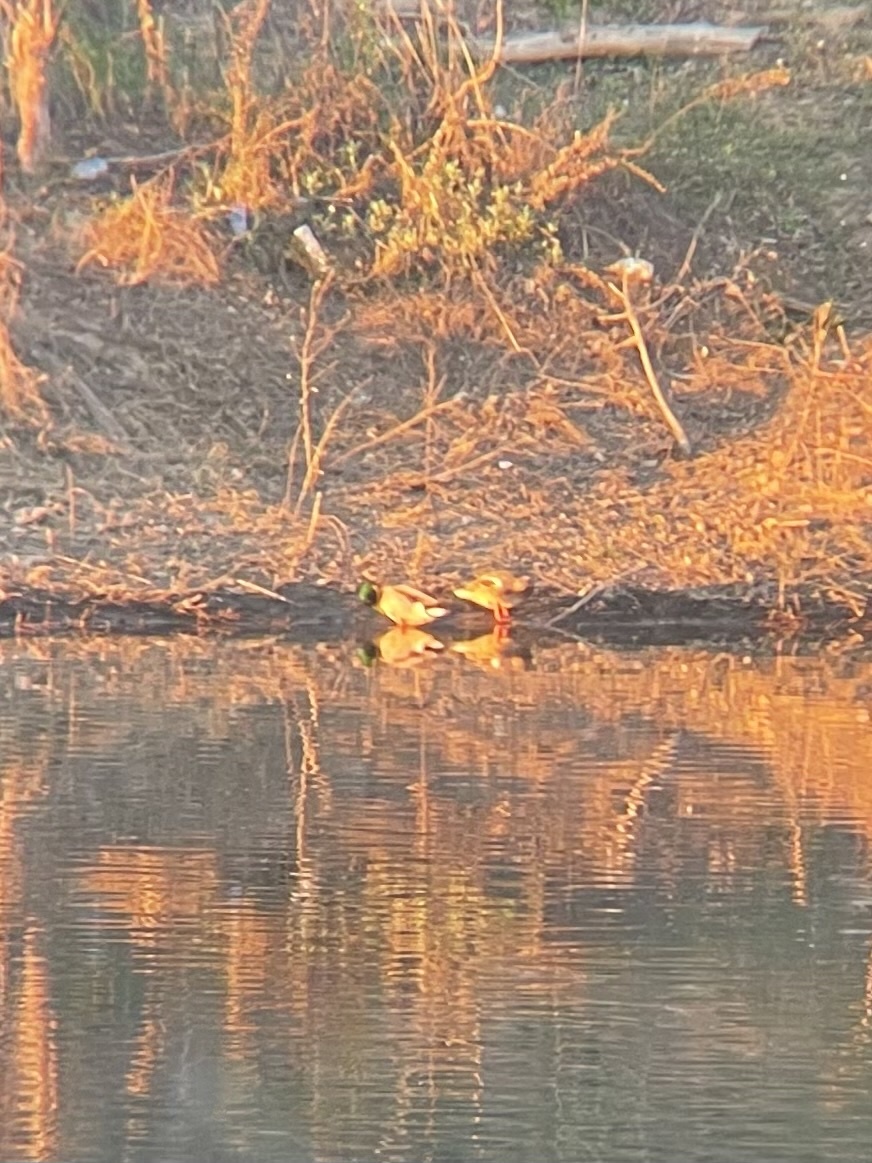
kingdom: Animalia
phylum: Chordata
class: Aves
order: Anseriformes
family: Anatidae
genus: Anas
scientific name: Anas platyrhynchos
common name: Mallard
